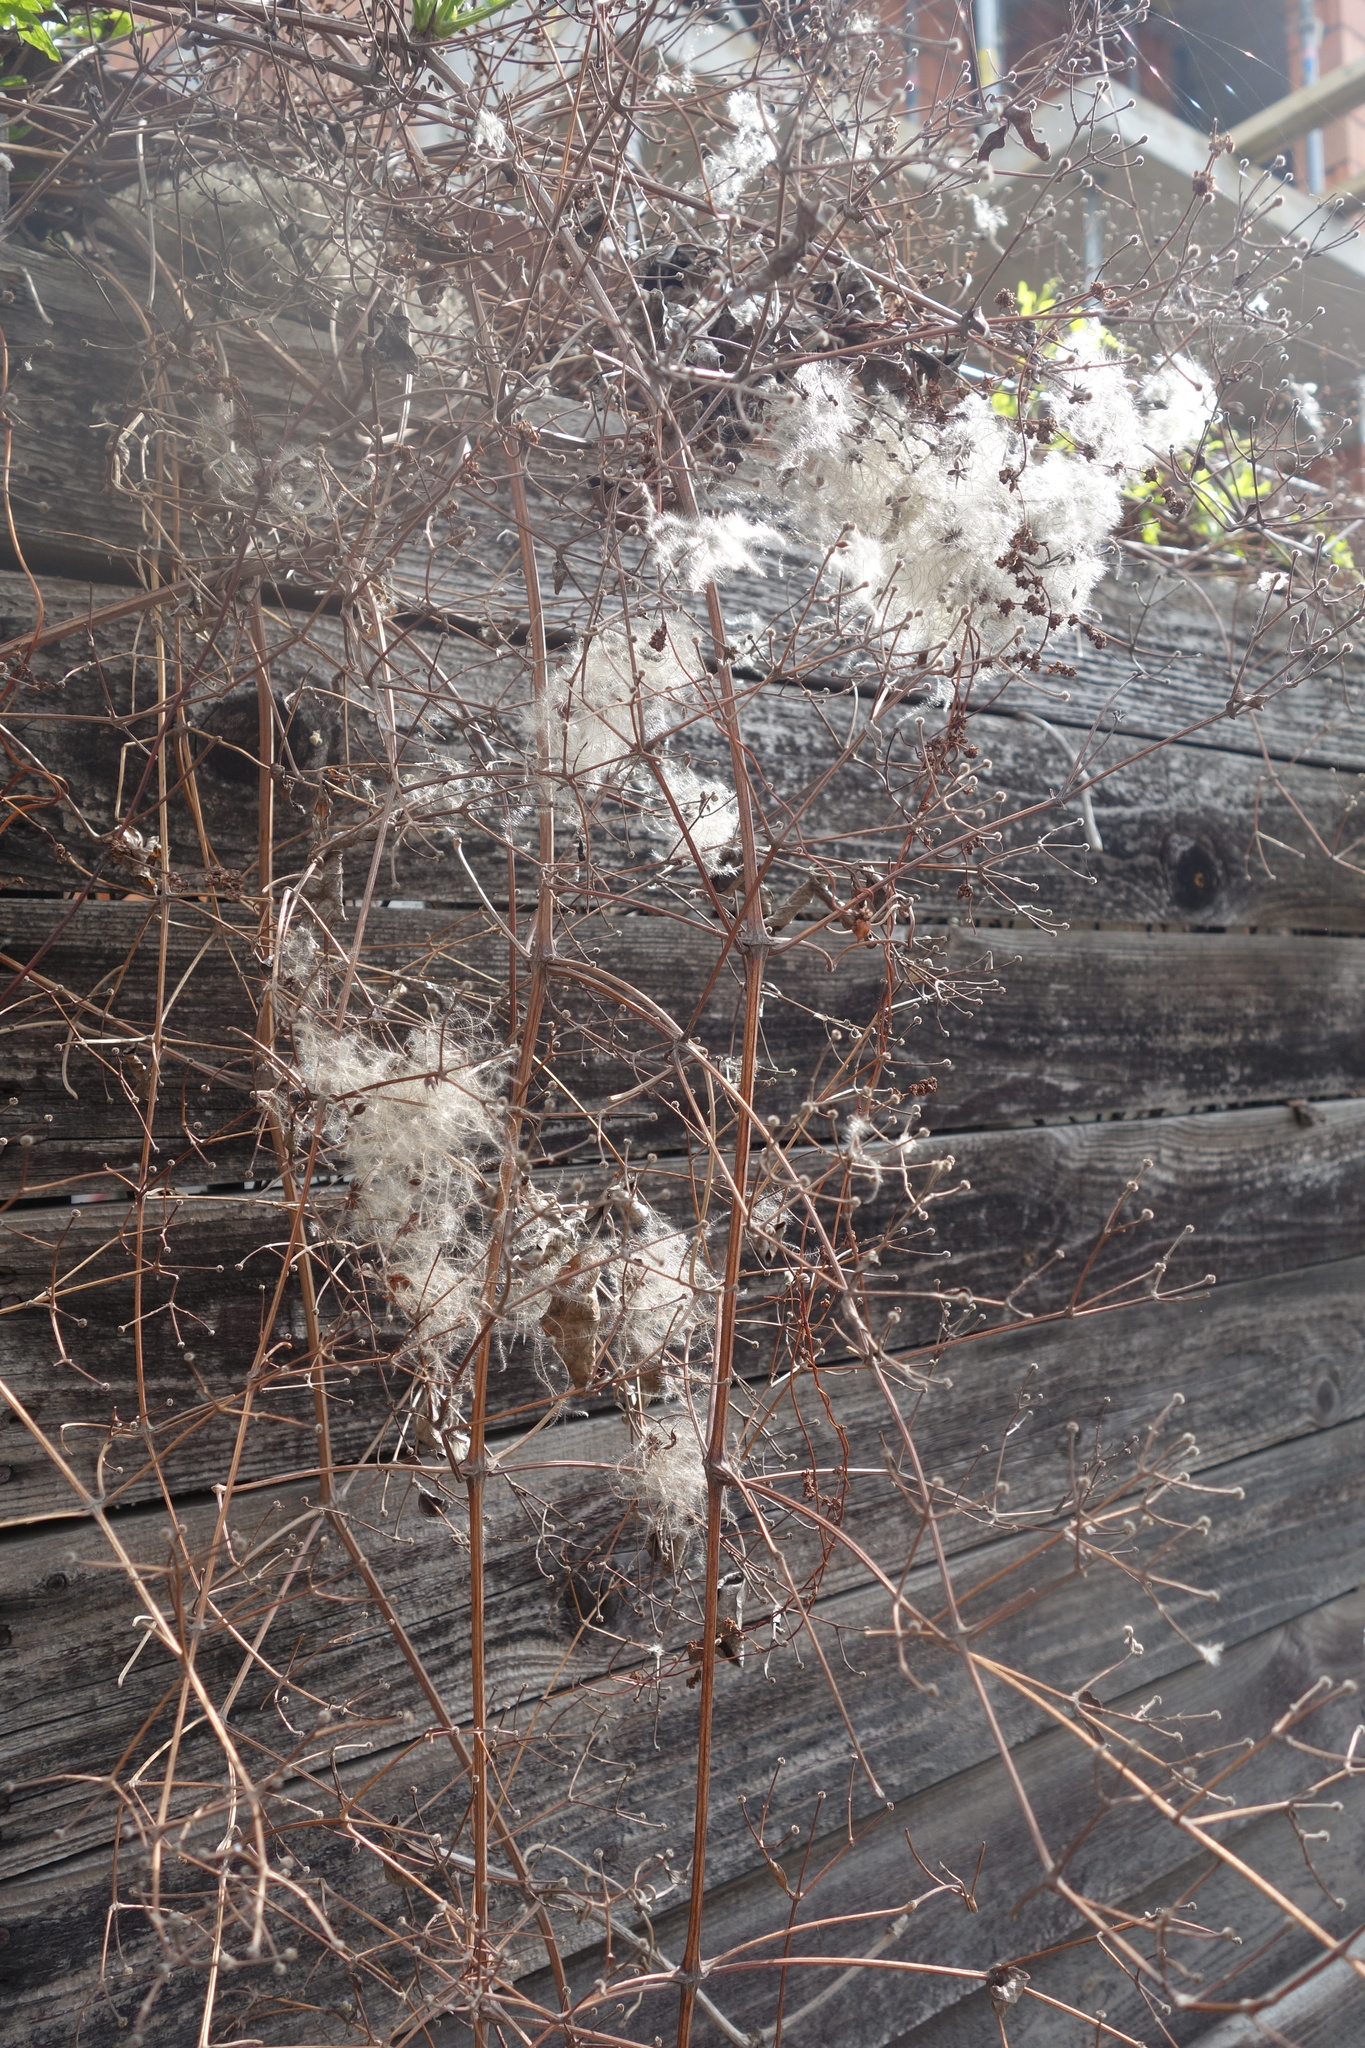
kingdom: Plantae
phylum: Tracheophyta
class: Magnoliopsida
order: Ranunculales
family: Ranunculaceae
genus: Clematis
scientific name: Clematis vitalba
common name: Evergreen clematis
